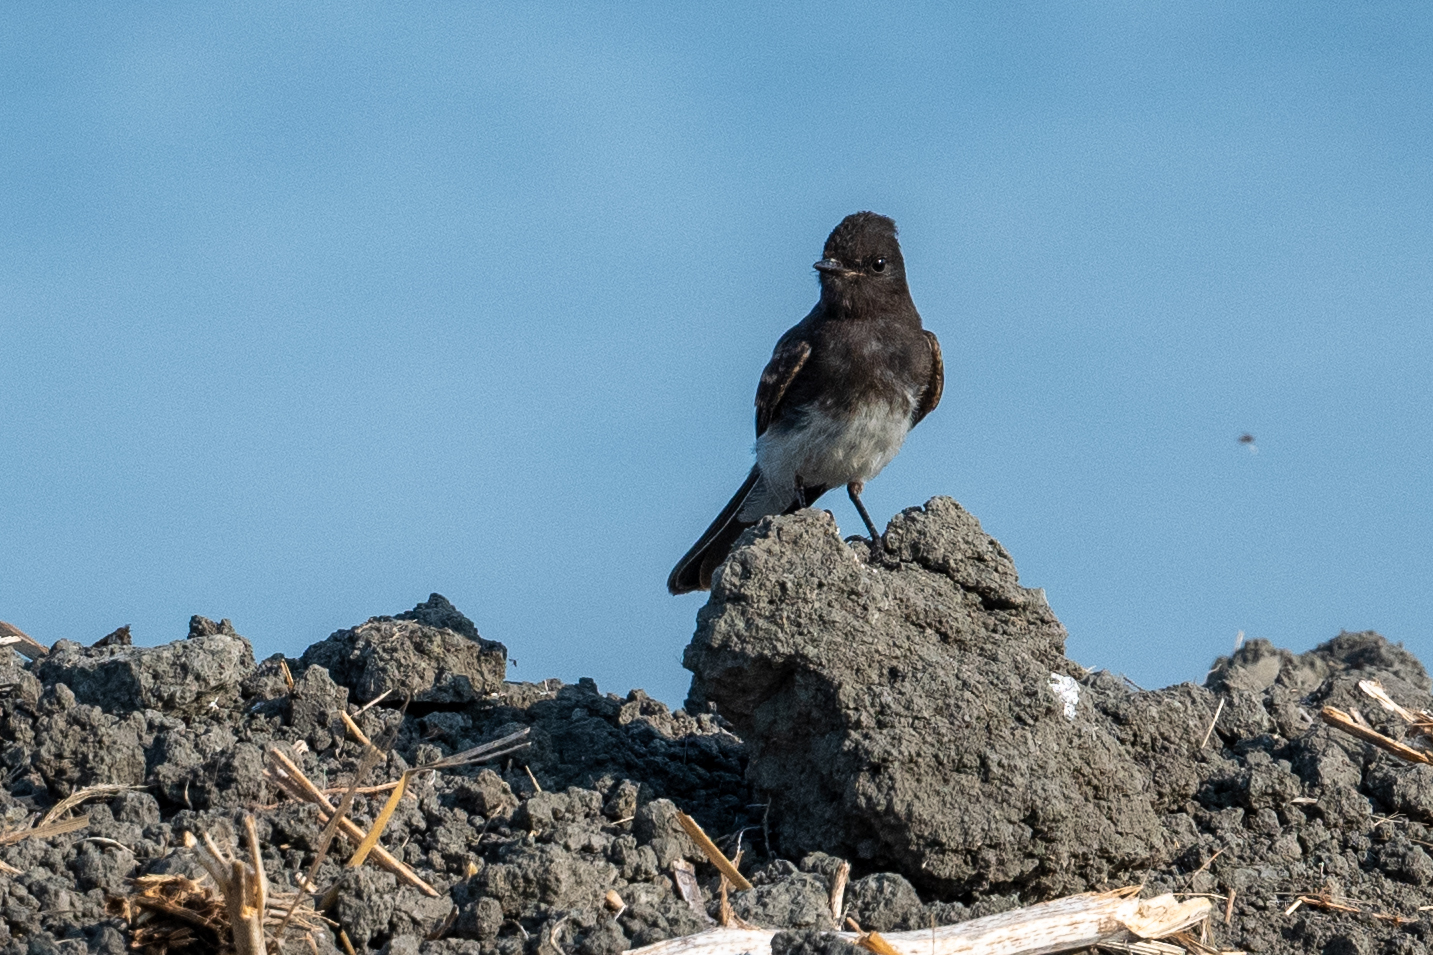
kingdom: Animalia
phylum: Chordata
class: Aves
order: Passeriformes
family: Tyrannidae
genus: Sayornis
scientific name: Sayornis nigricans
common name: Black phoebe
